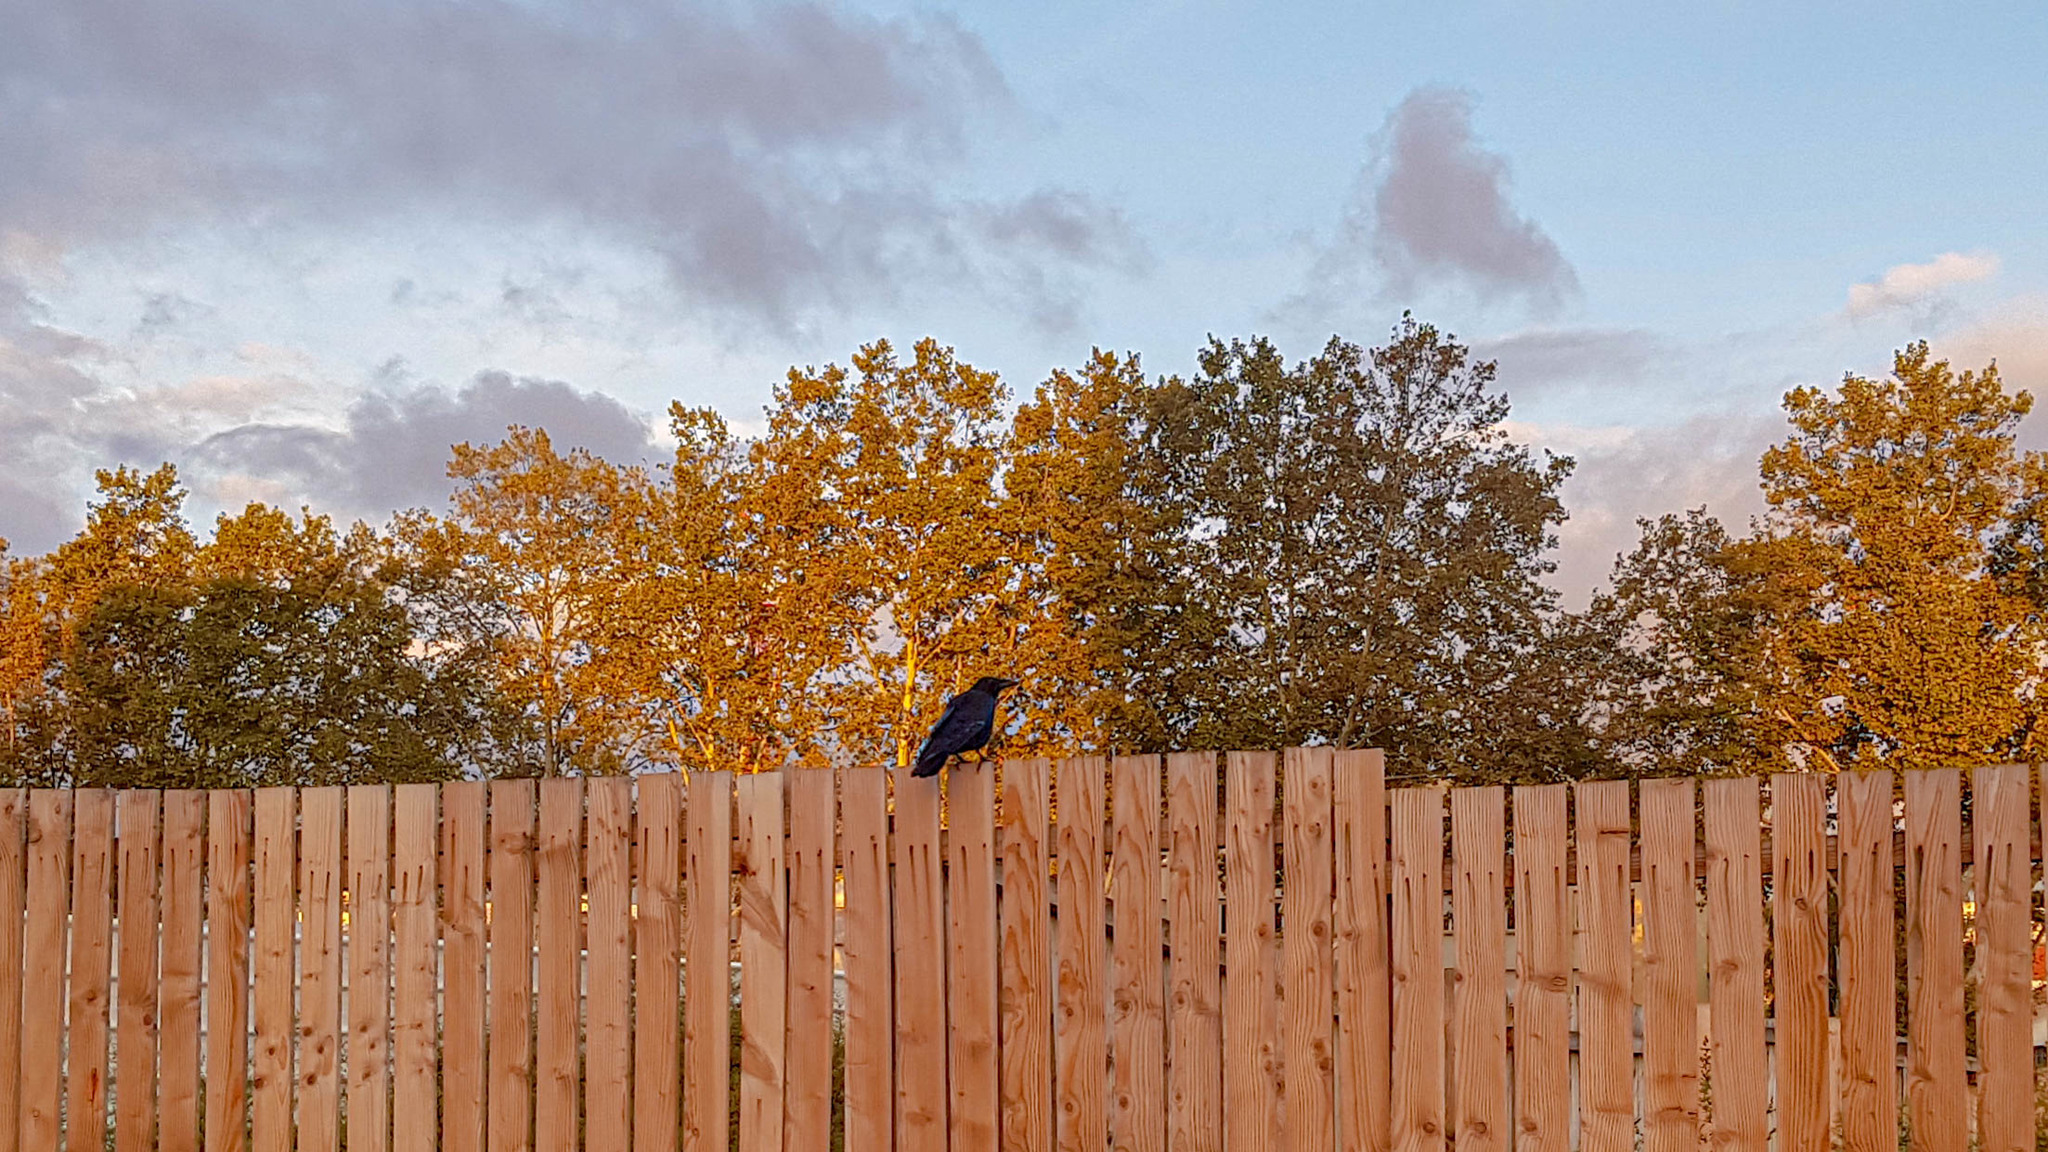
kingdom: Animalia
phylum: Chordata
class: Aves
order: Passeriformes
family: Corvidae
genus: Corvus
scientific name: Corvus corone
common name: Carrion crow
